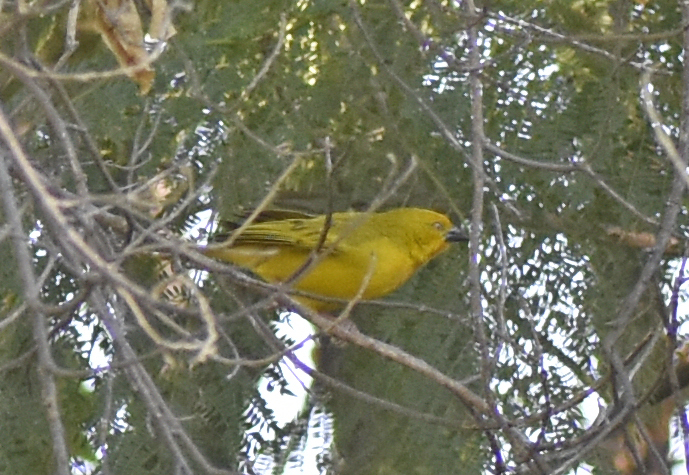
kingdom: Animalia
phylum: Chordata
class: Aves
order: Passeriformes
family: Ploceidae
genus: Ploceus
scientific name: Ploceus xanthops
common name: Holub's golden weaver
